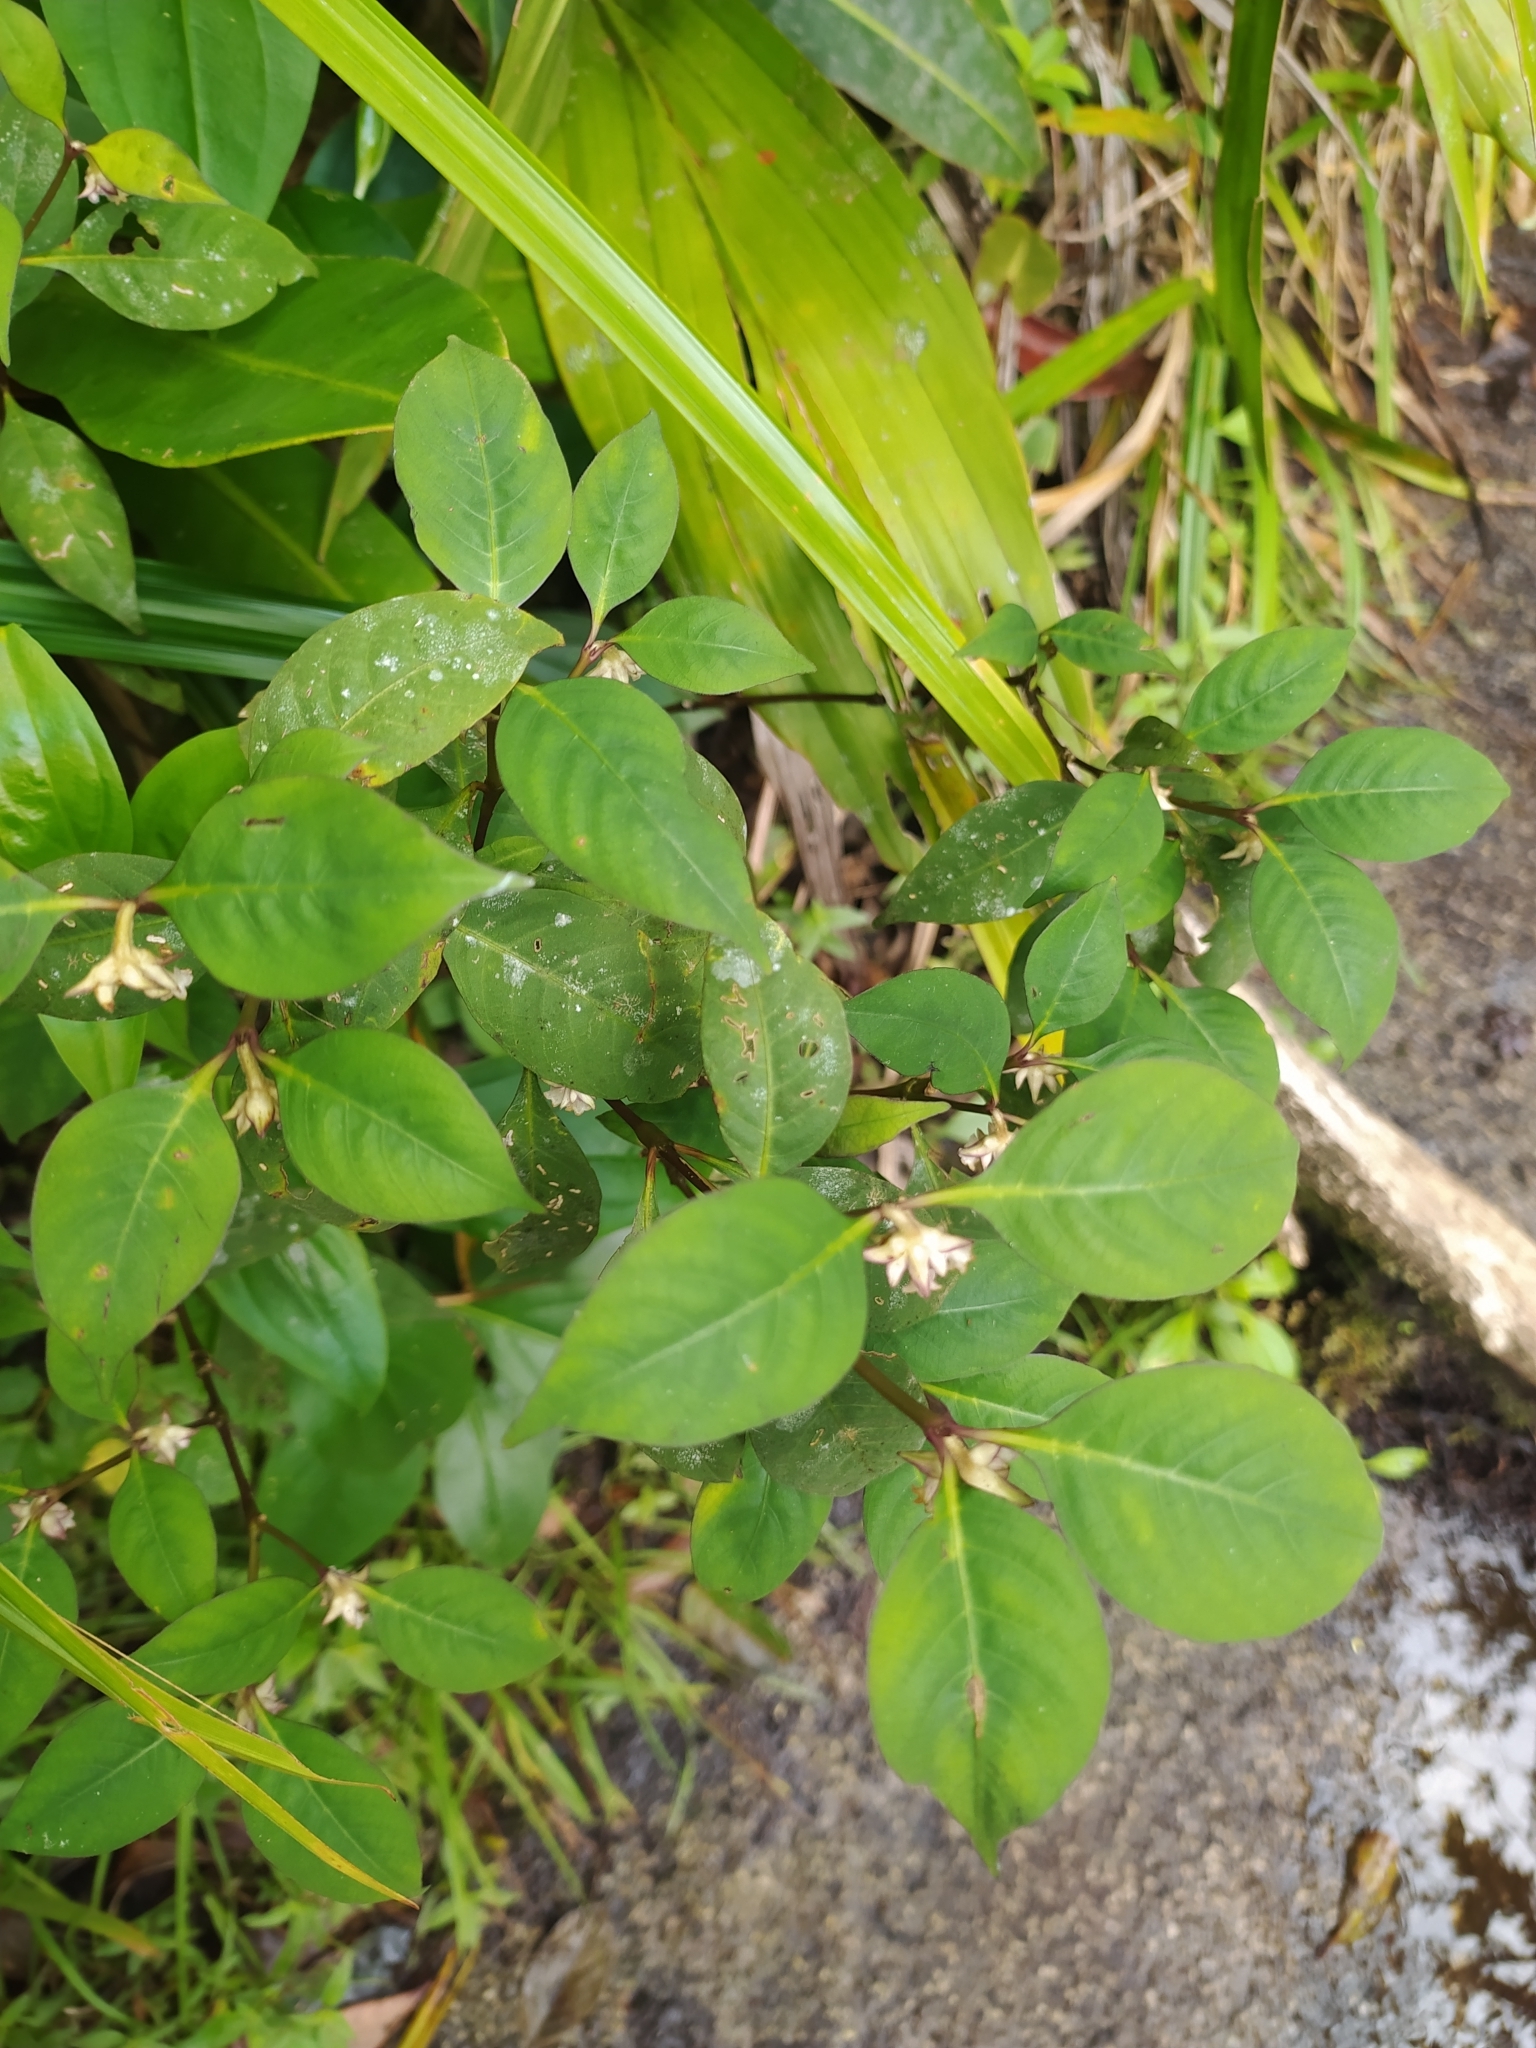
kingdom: Plantae
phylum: Tracheophyta
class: Magnoliopsida
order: Gentianales
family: Rubiaceae
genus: Palicourea
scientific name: Palicourea hoffmannseggiana
